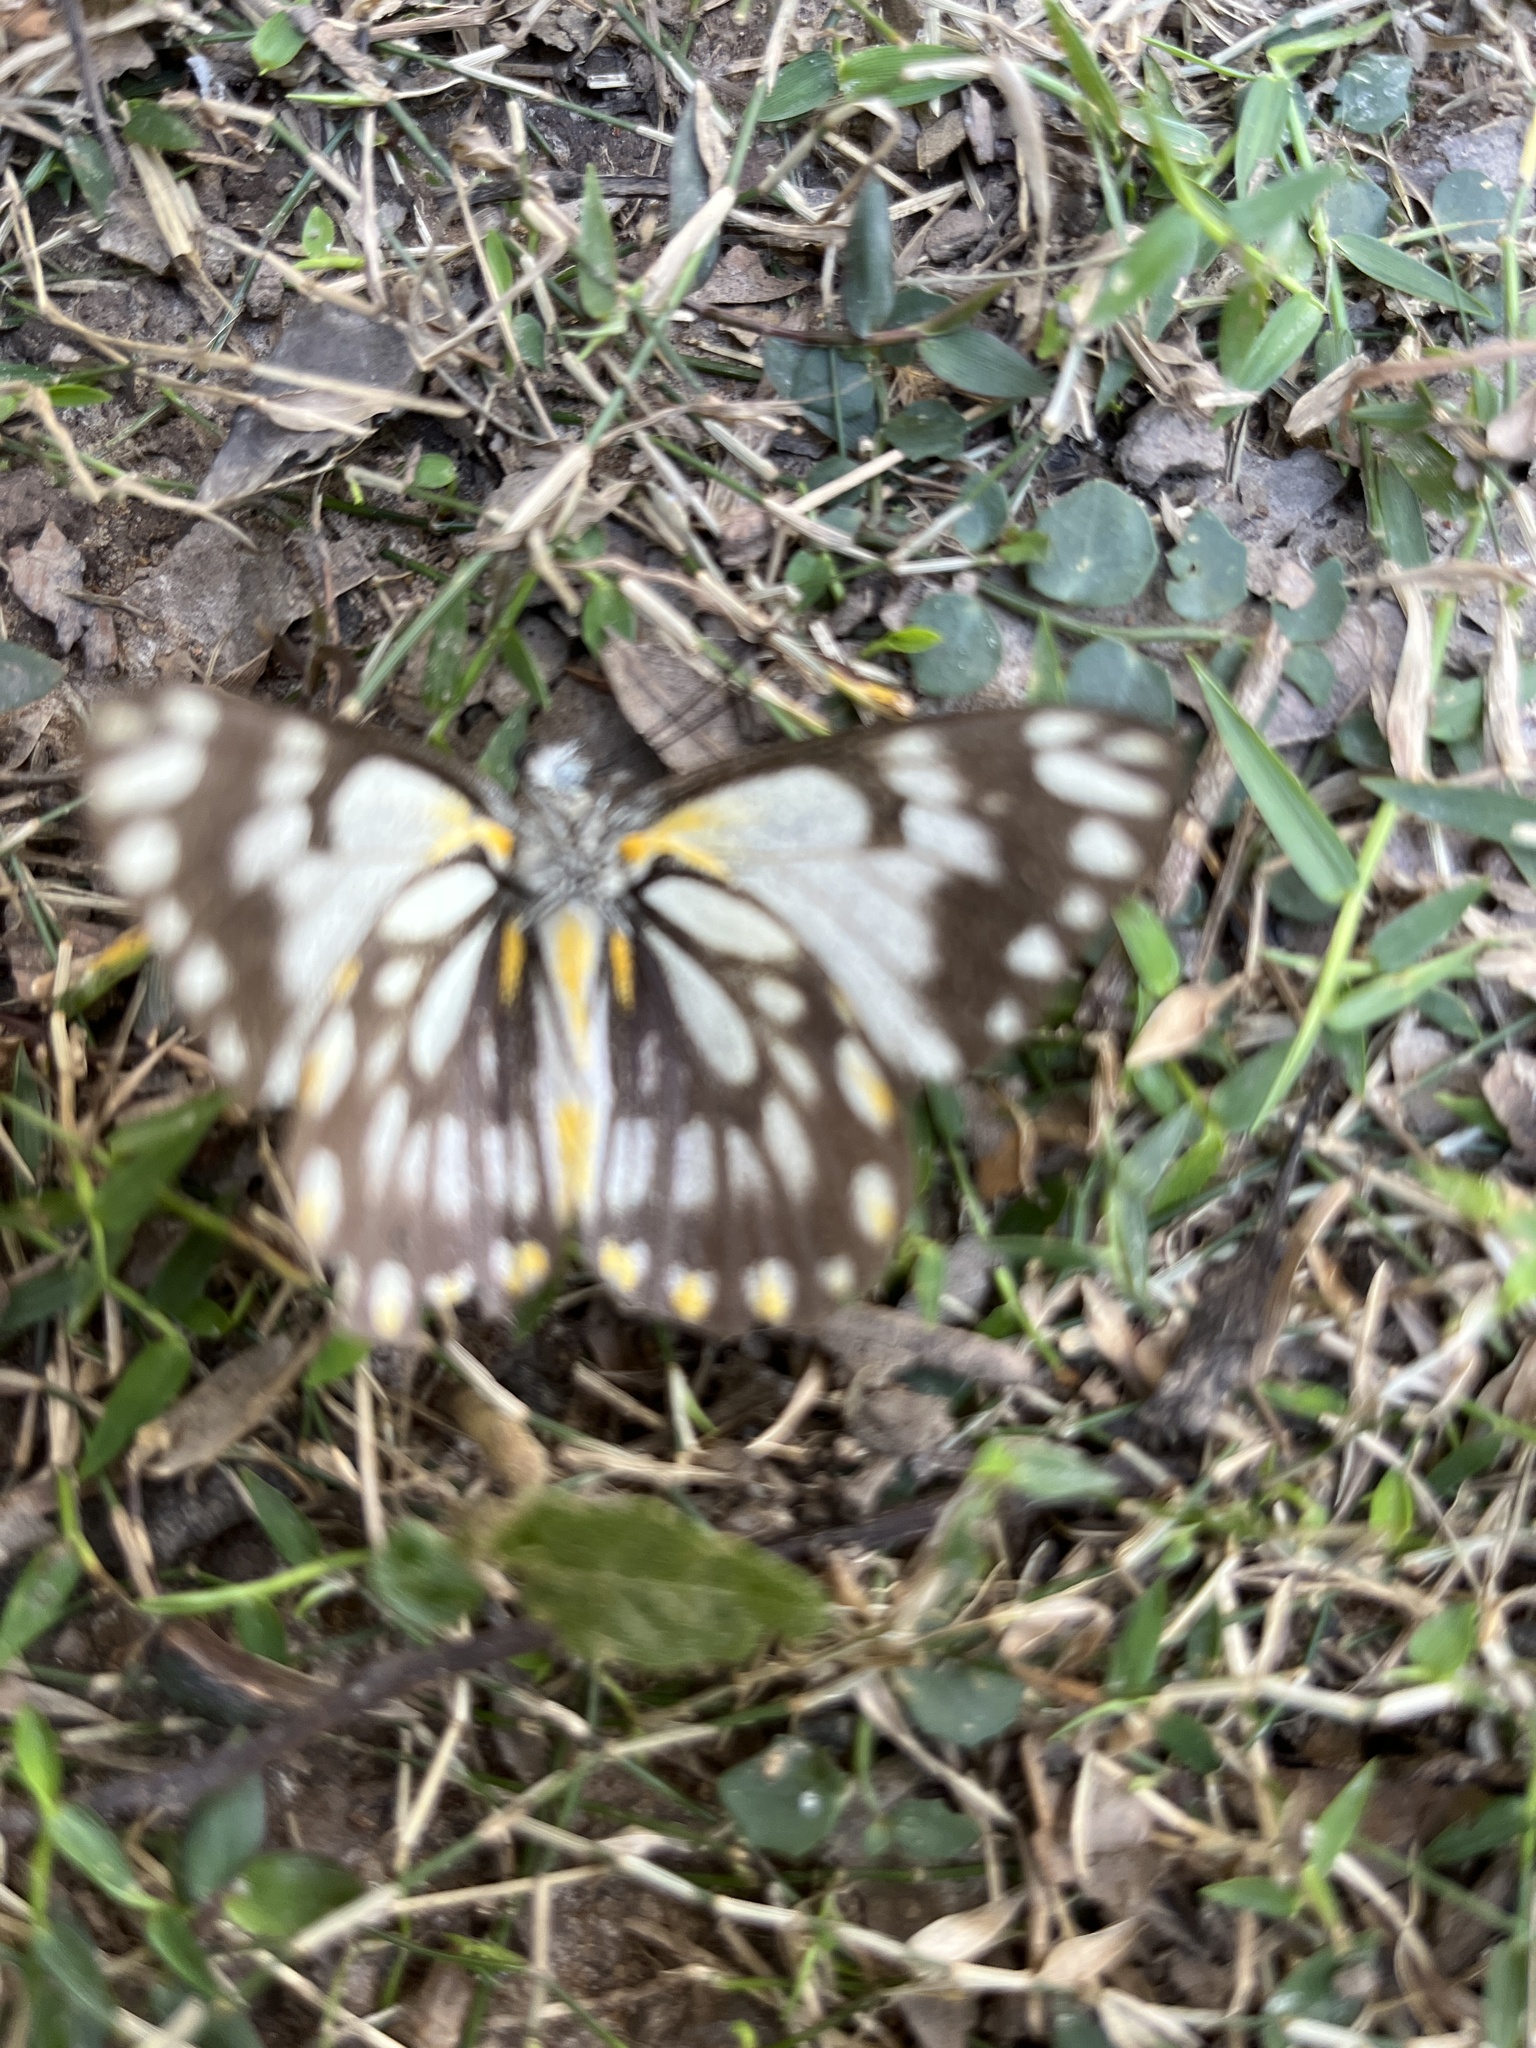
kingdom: Animalia
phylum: Arthropoda
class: Insecta
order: Lepidoptera
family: Pieridae
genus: Belenois
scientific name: Belenois java
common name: Caper white
